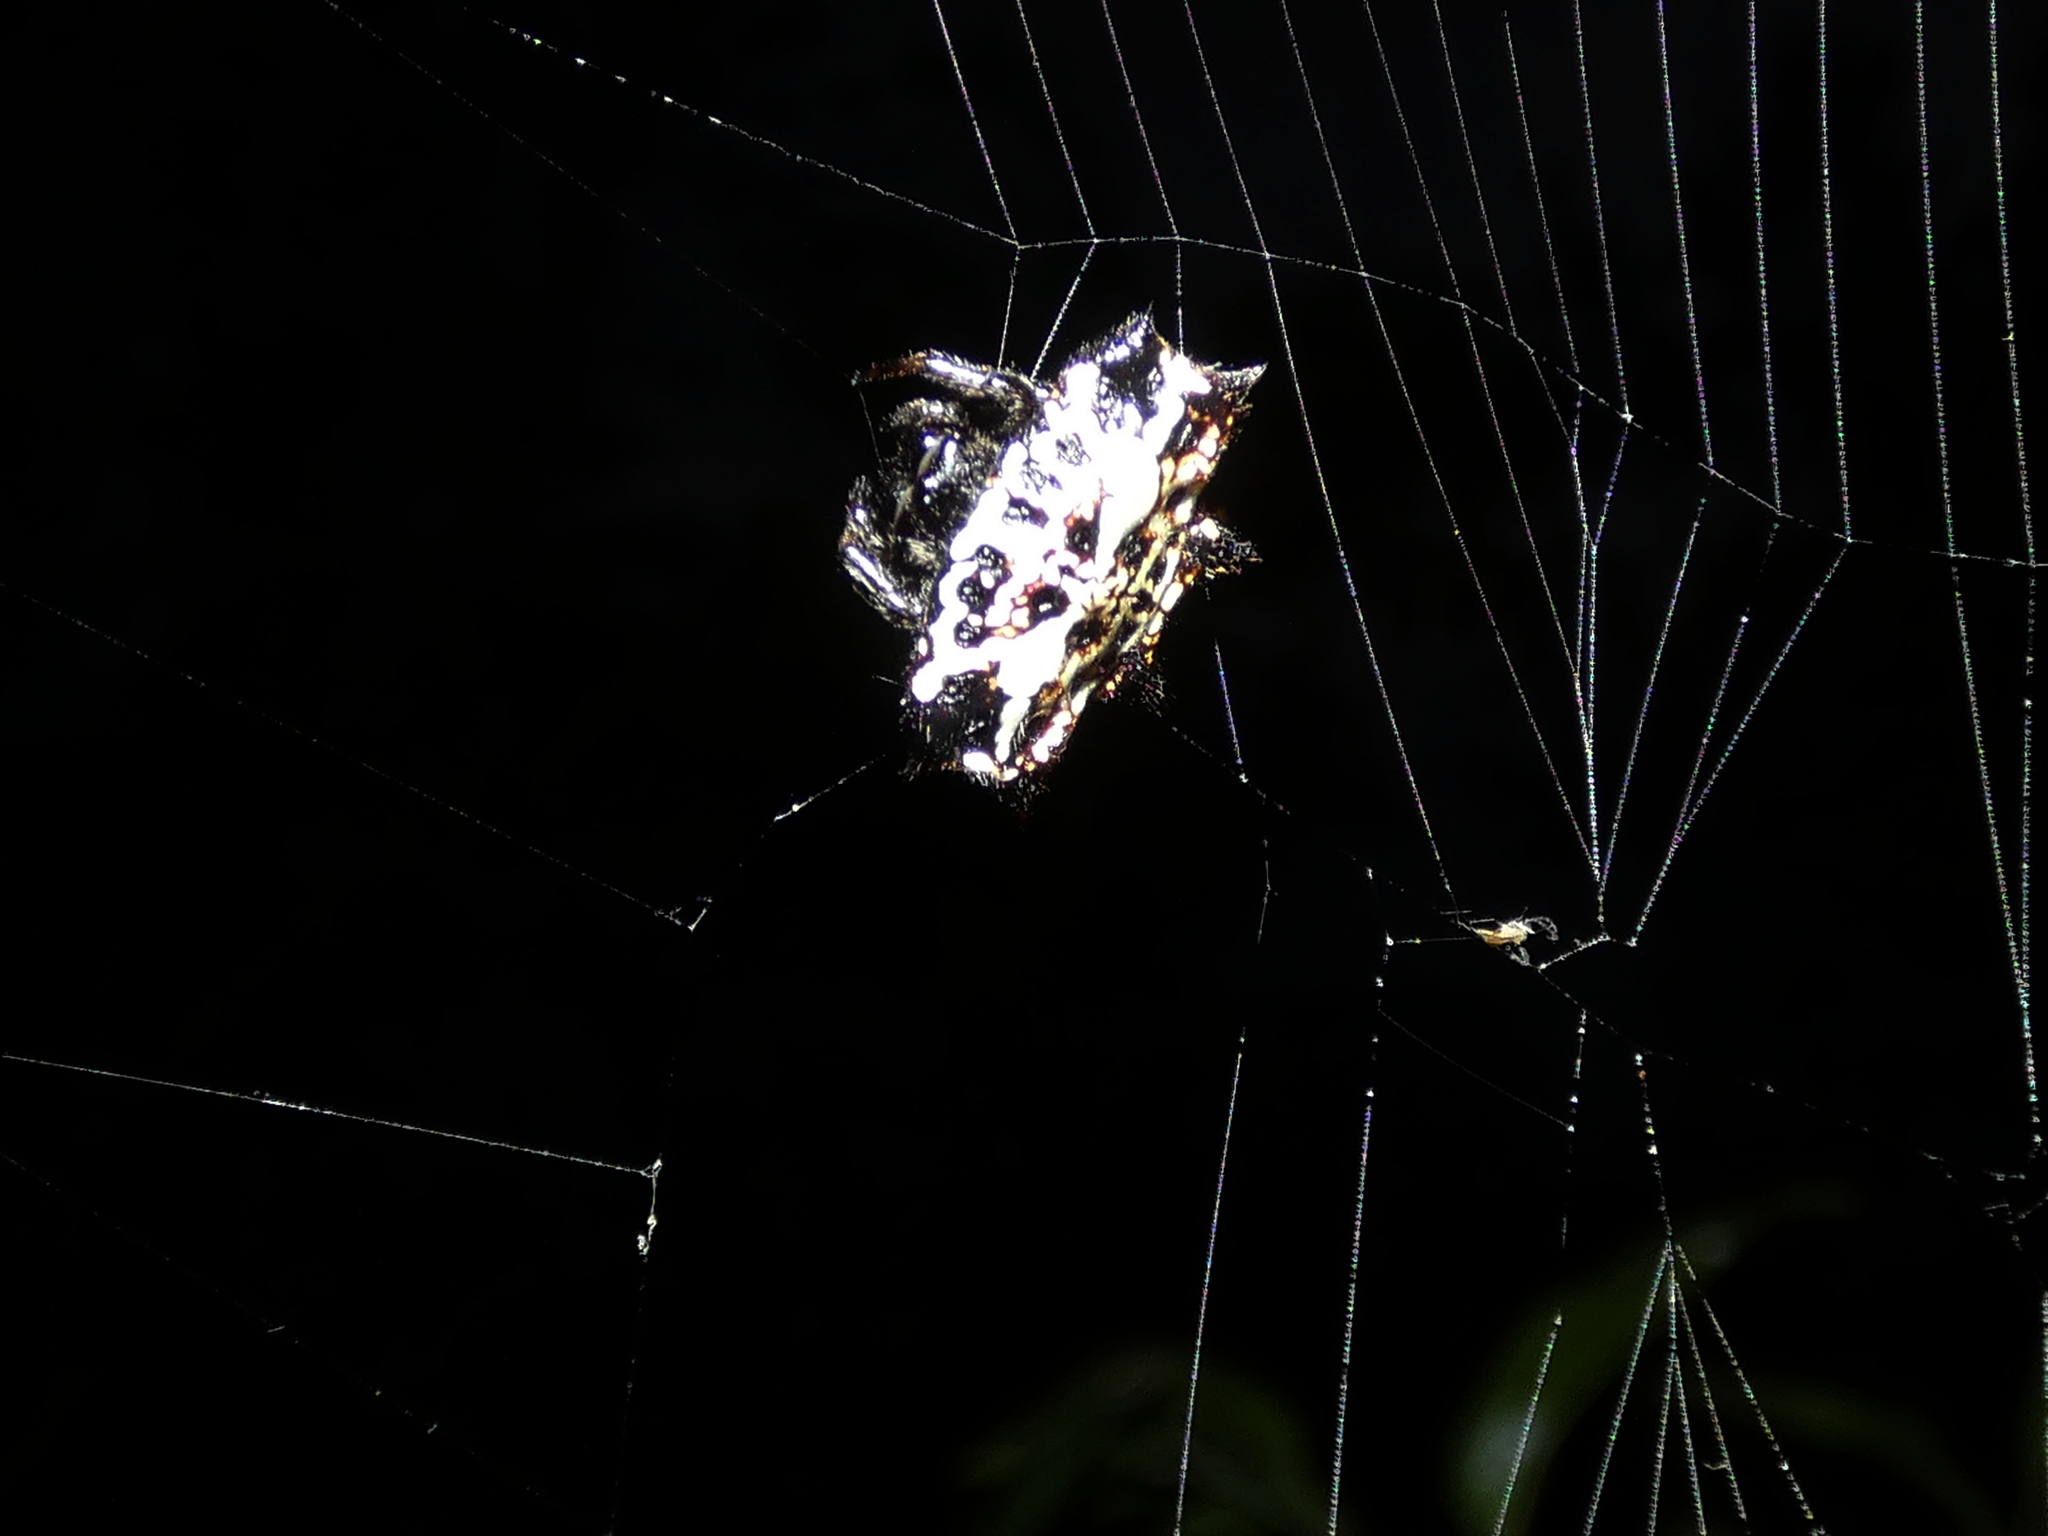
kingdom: Animalia
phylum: Arthropoda
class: Arachnida
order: Araneae
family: Araneidae
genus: Gasteracantha
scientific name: Gasteracantha cancriformis
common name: Orb weavers
